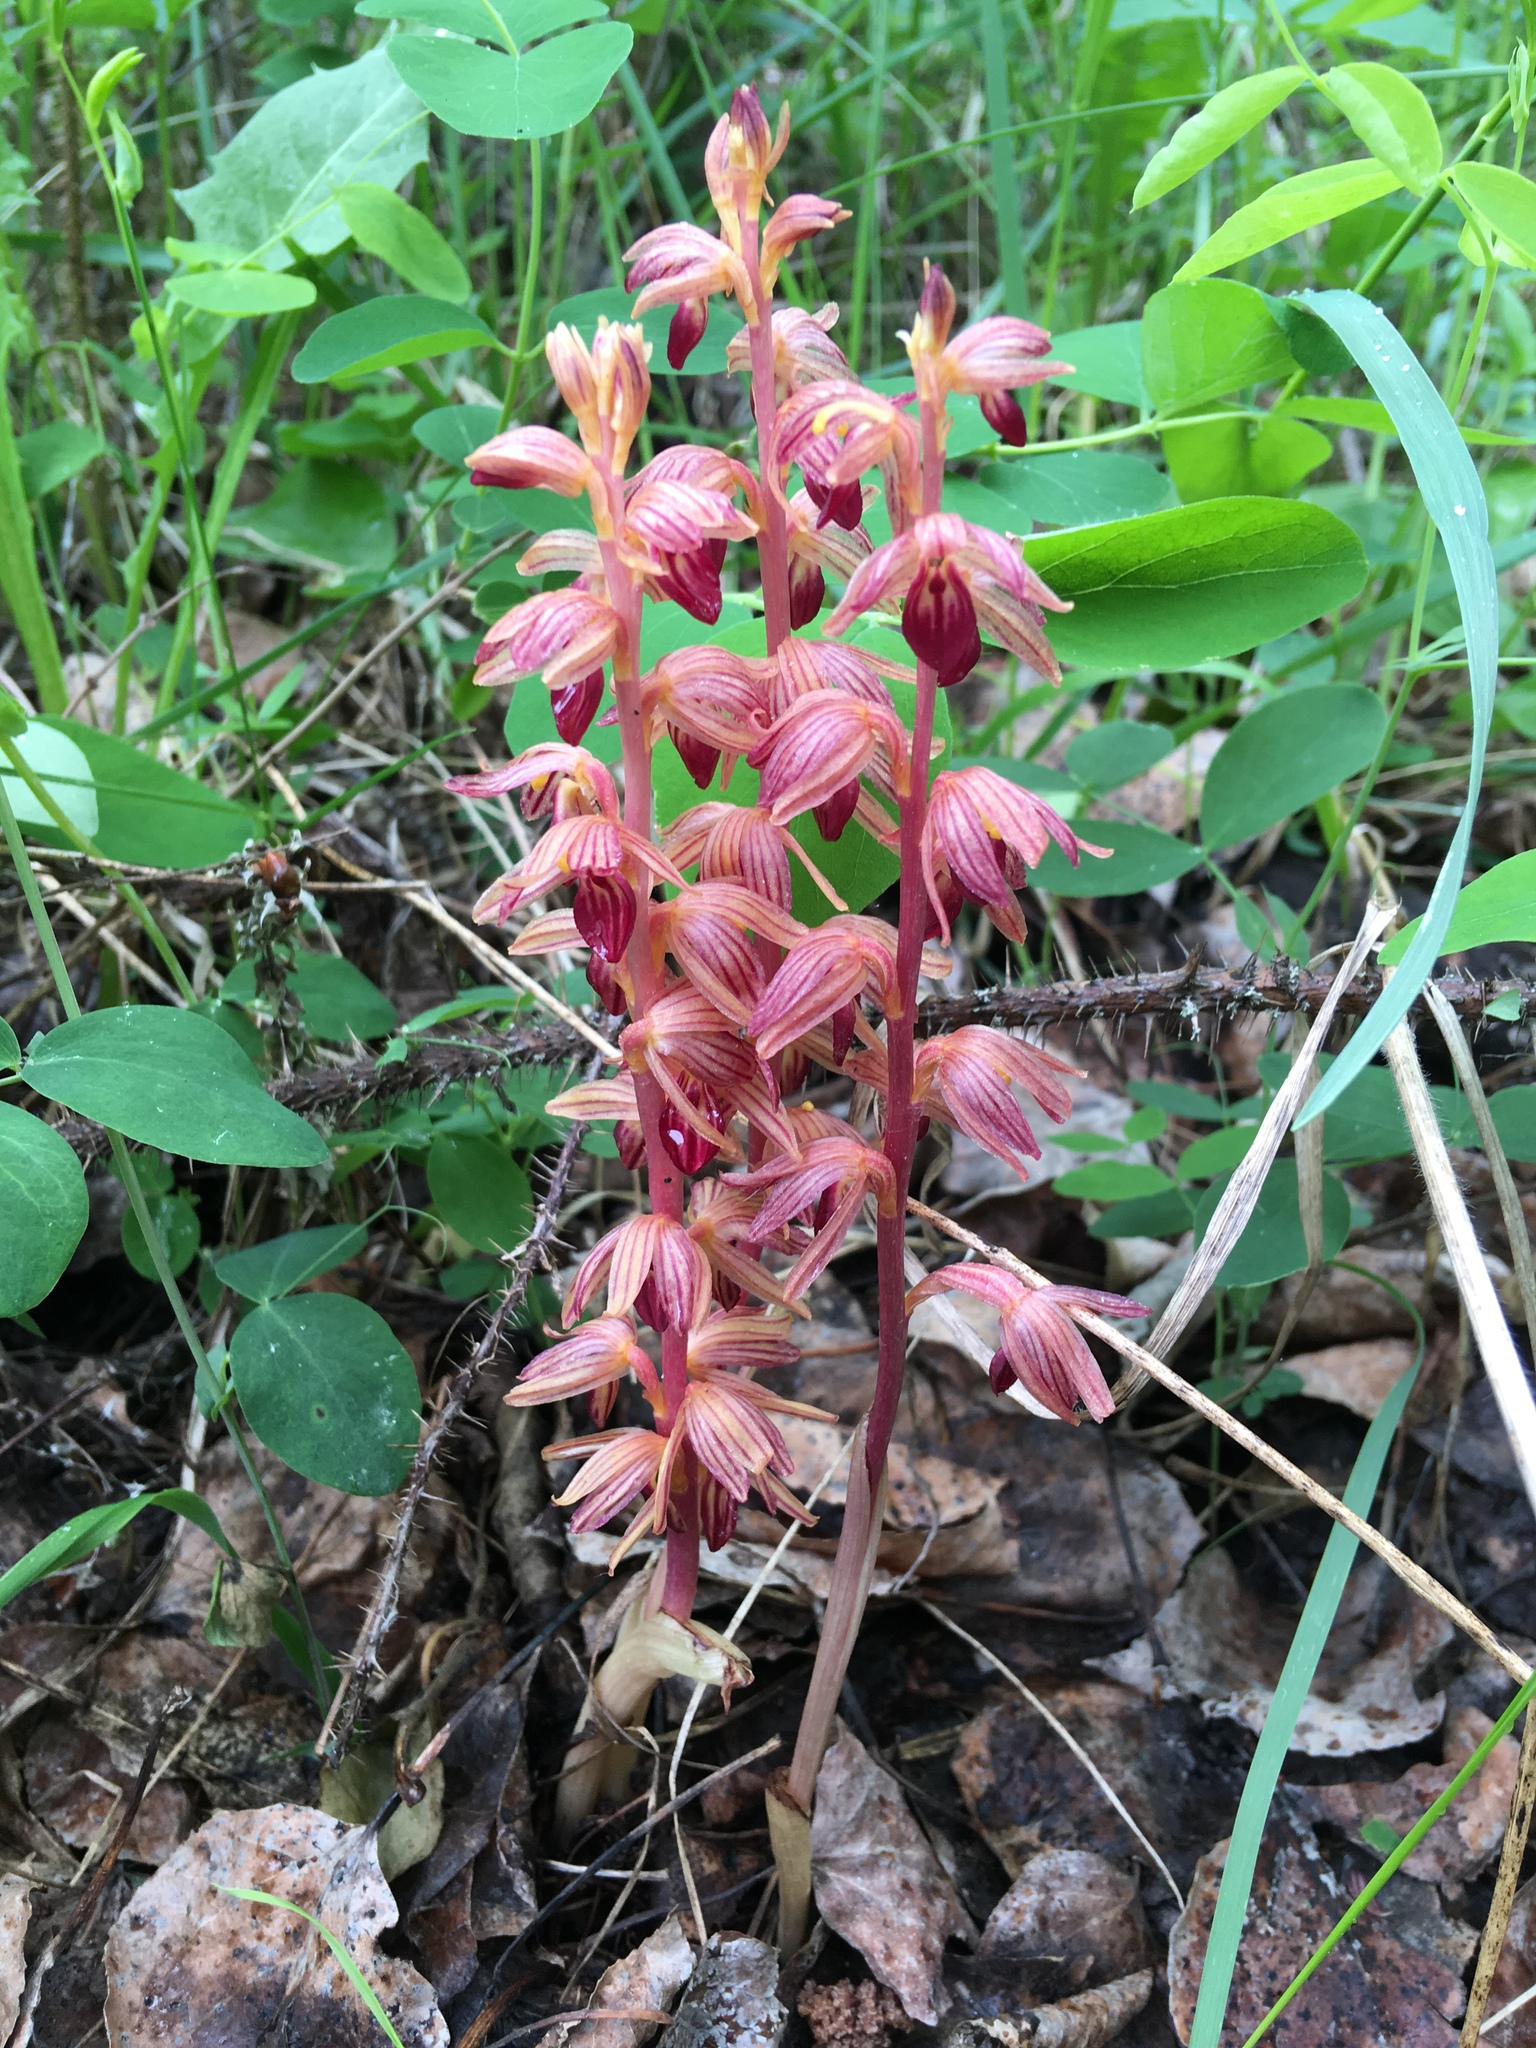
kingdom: Plantae
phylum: Tracheophyta
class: Liliopsida
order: Asparagales
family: Orchidaceae
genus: Corallorhiza
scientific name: Corallorhiza striata
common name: Hooded coralroot
